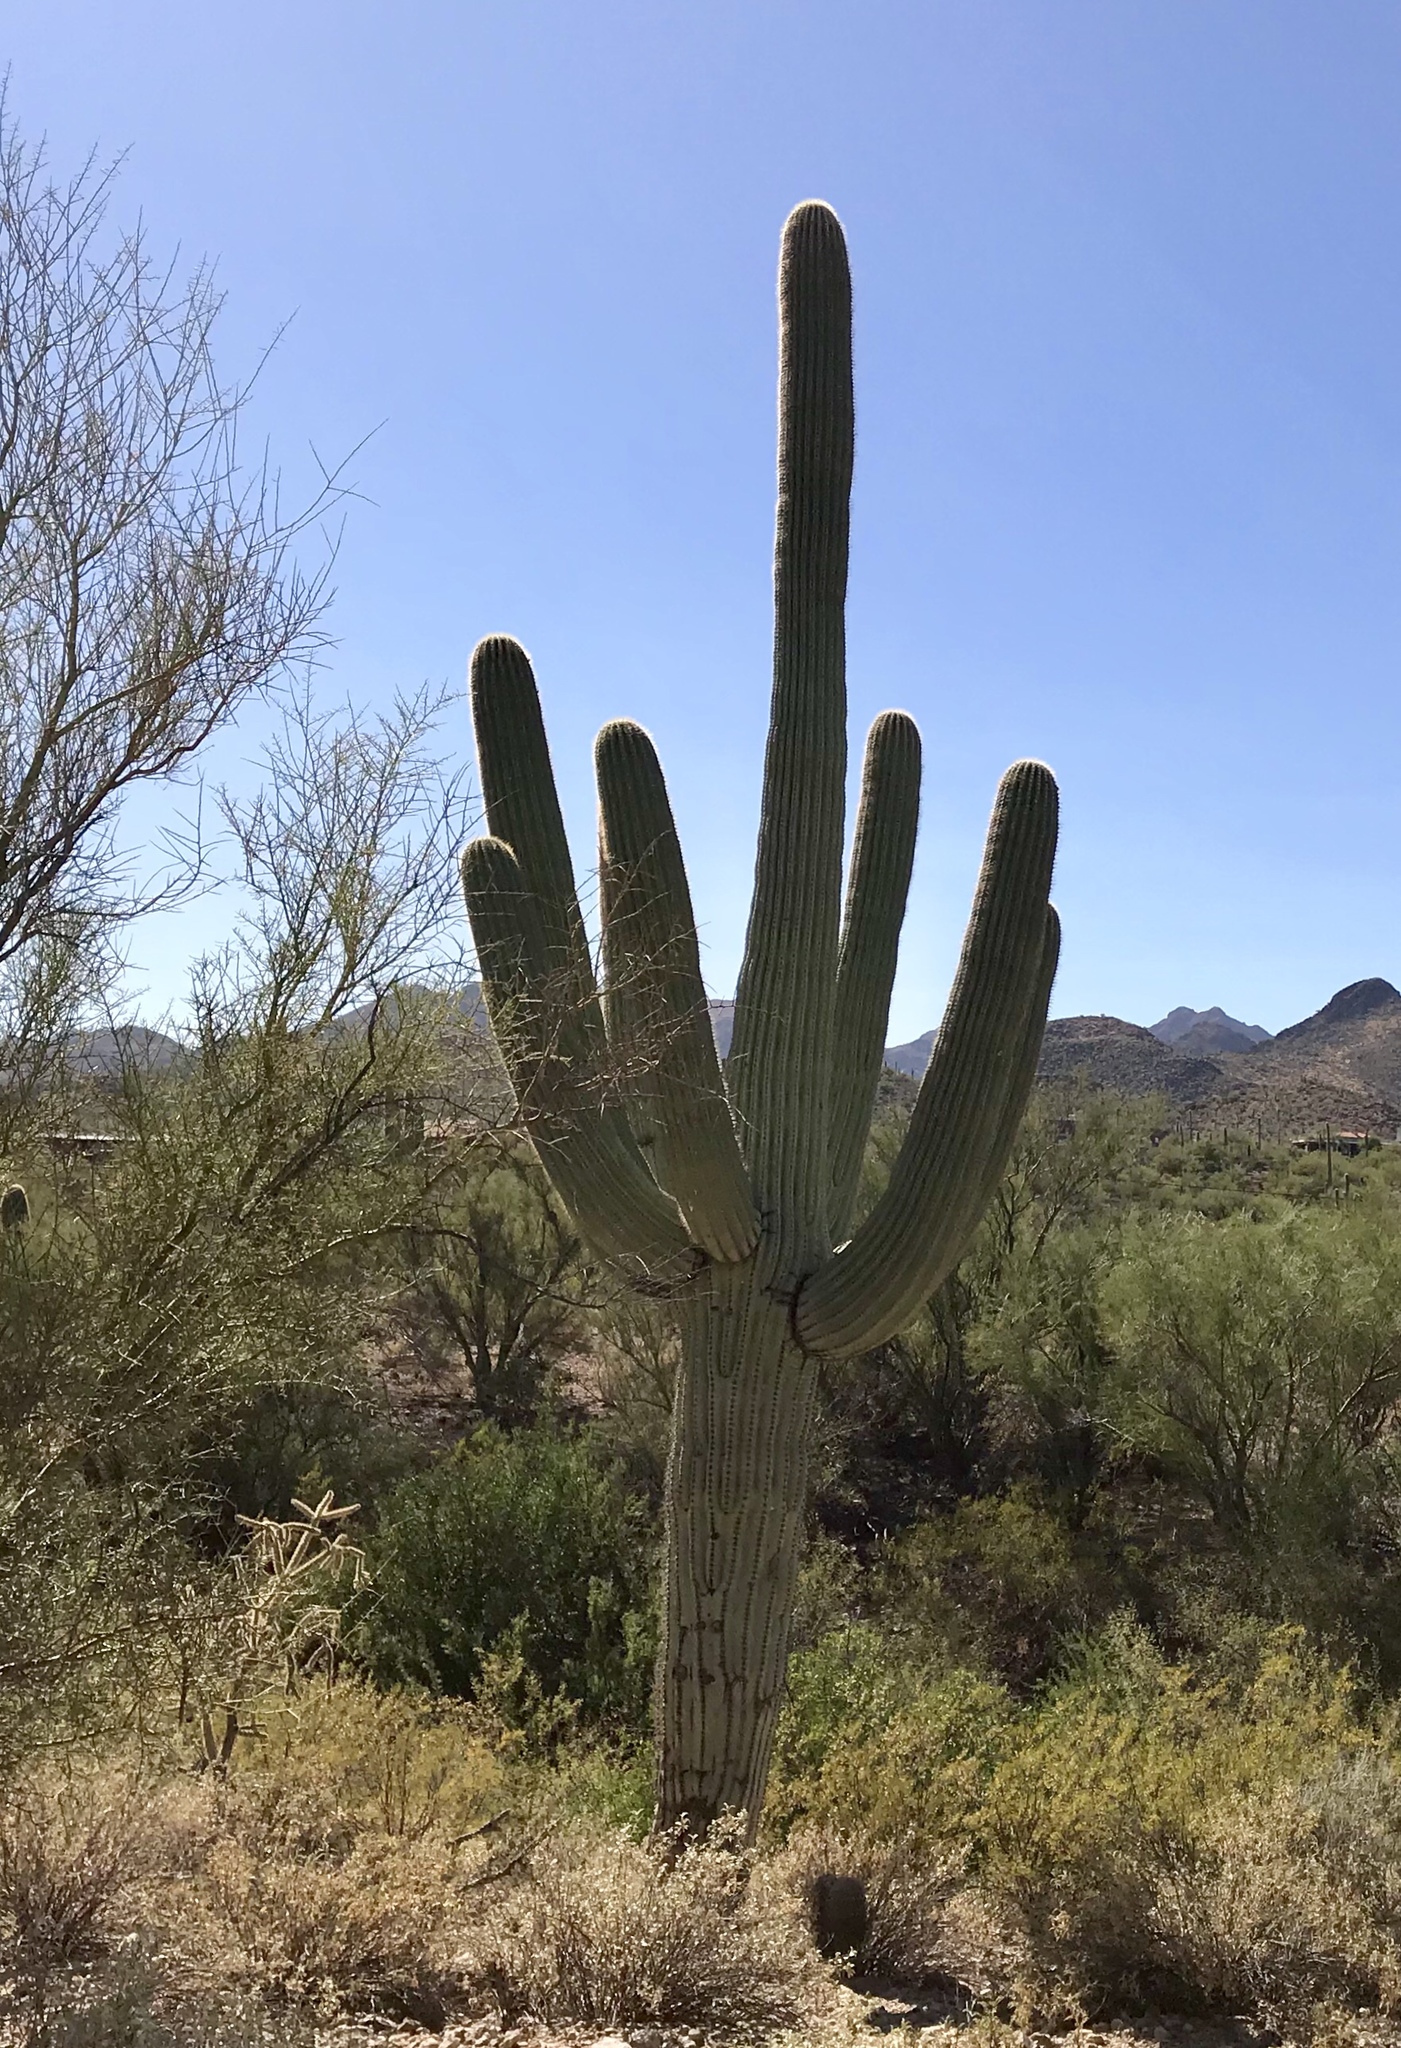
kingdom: Plantae
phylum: Tracheophyta
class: Magnoliopsida
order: Caryophyllales
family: Cactaceae
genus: Carnegiea
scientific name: Carnegiea gigantea
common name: Saguaro
